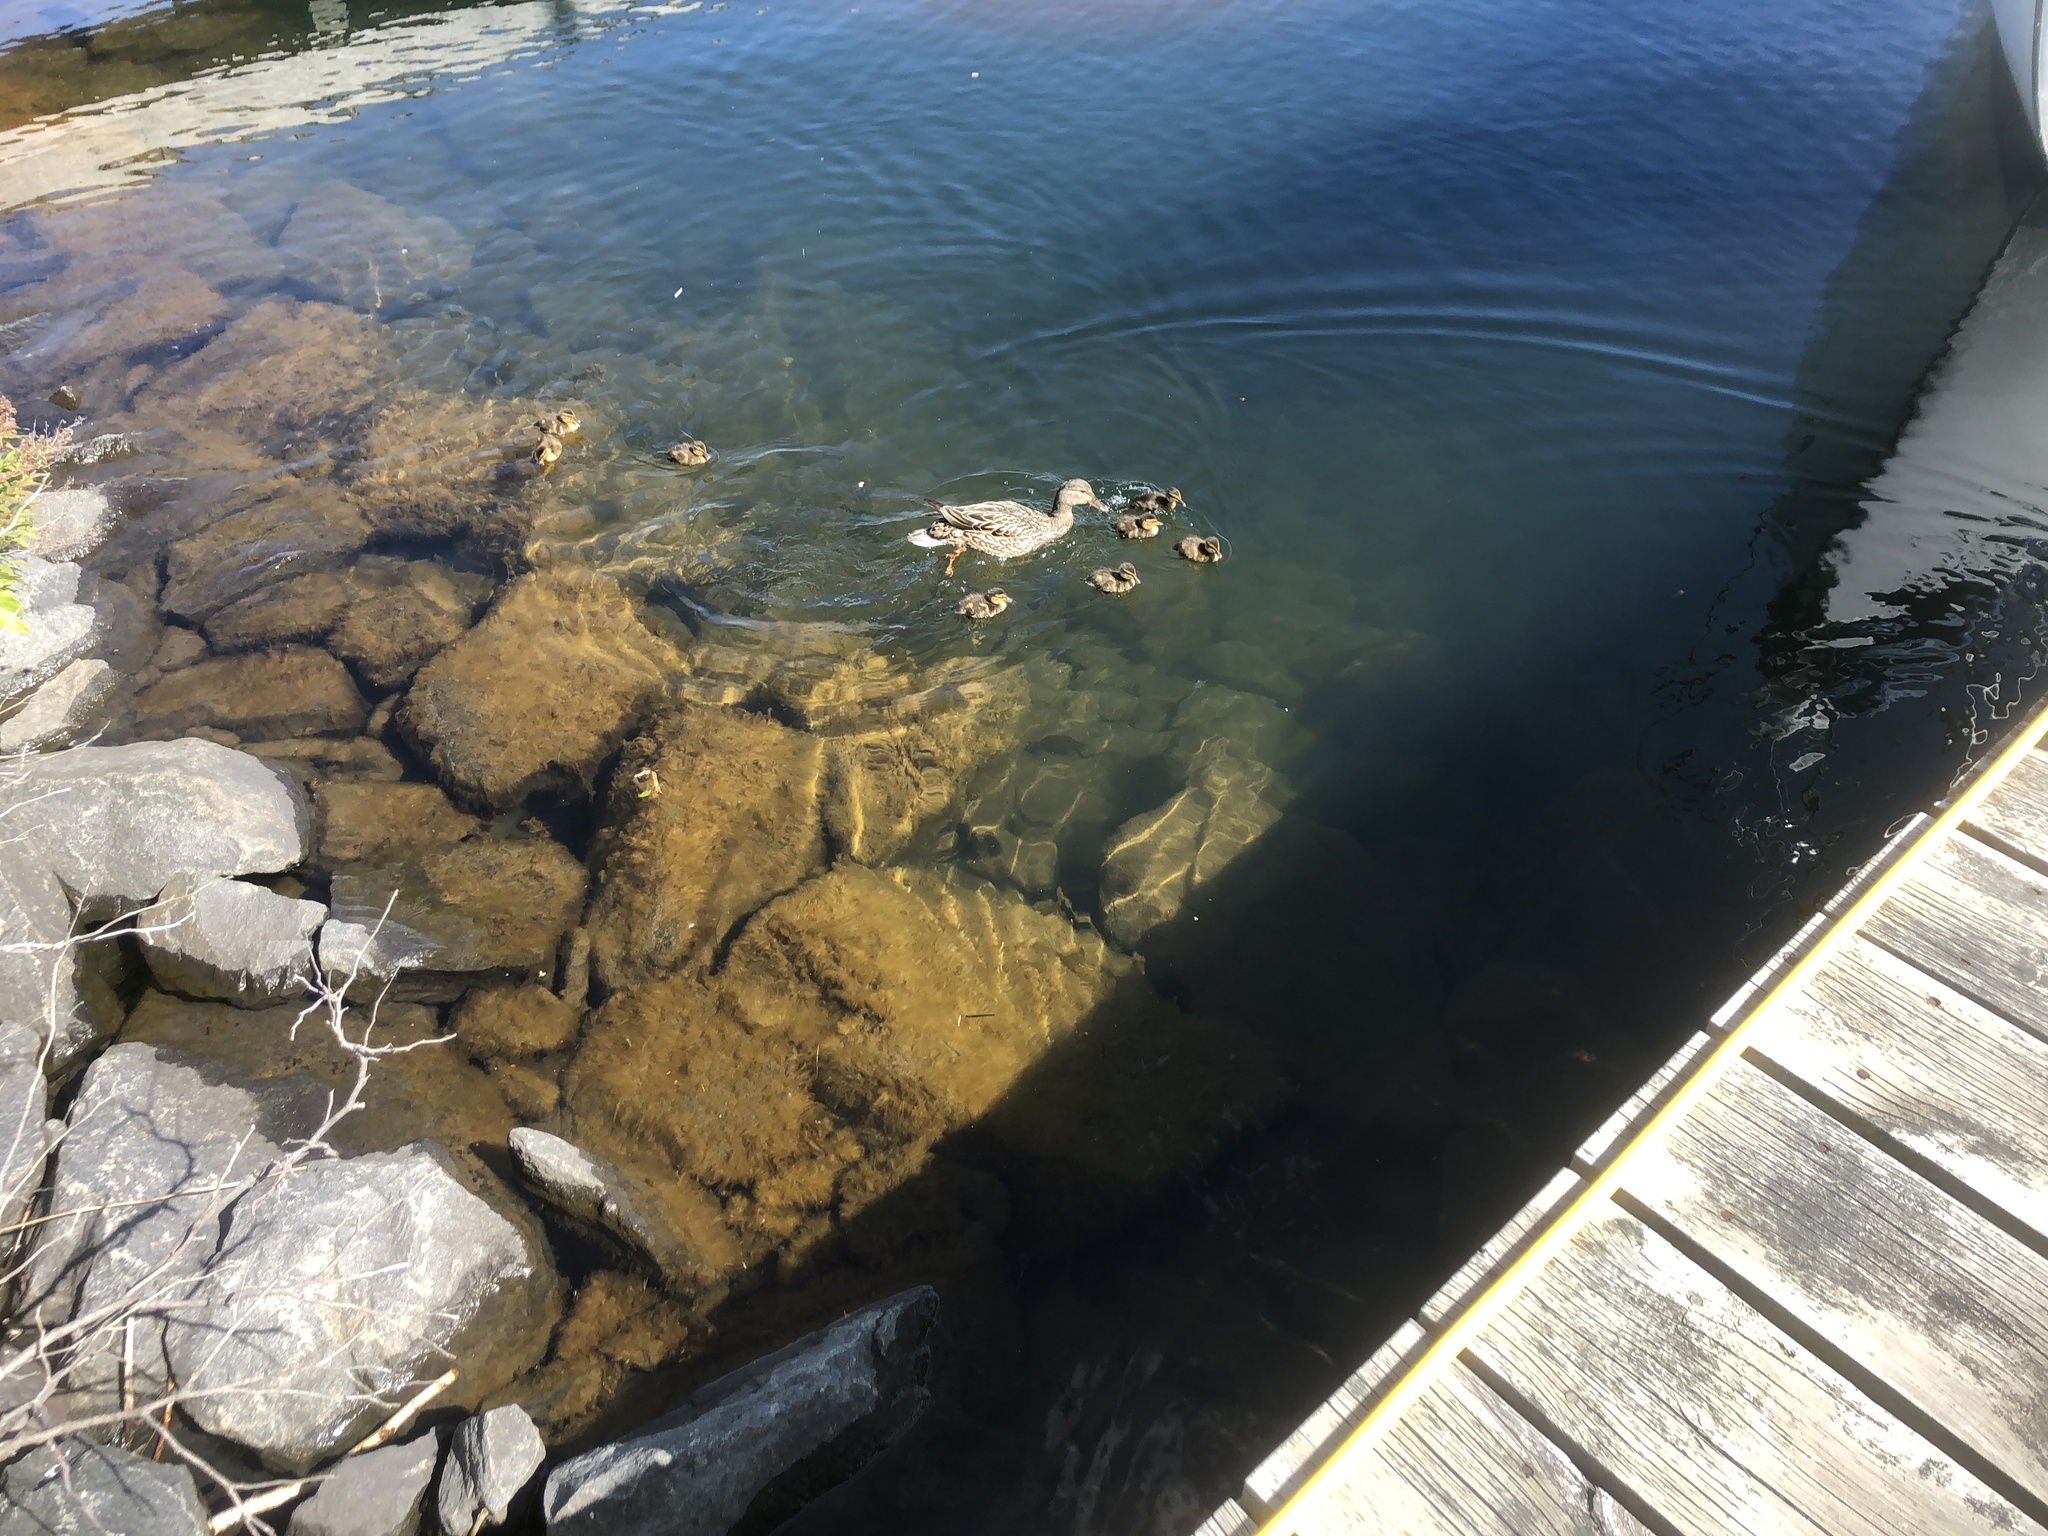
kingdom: Animalia
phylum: Chordata
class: Aves
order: Anseriformes
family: Anatidae
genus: Anas
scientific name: Anas platyrhynchos
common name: Mallard
